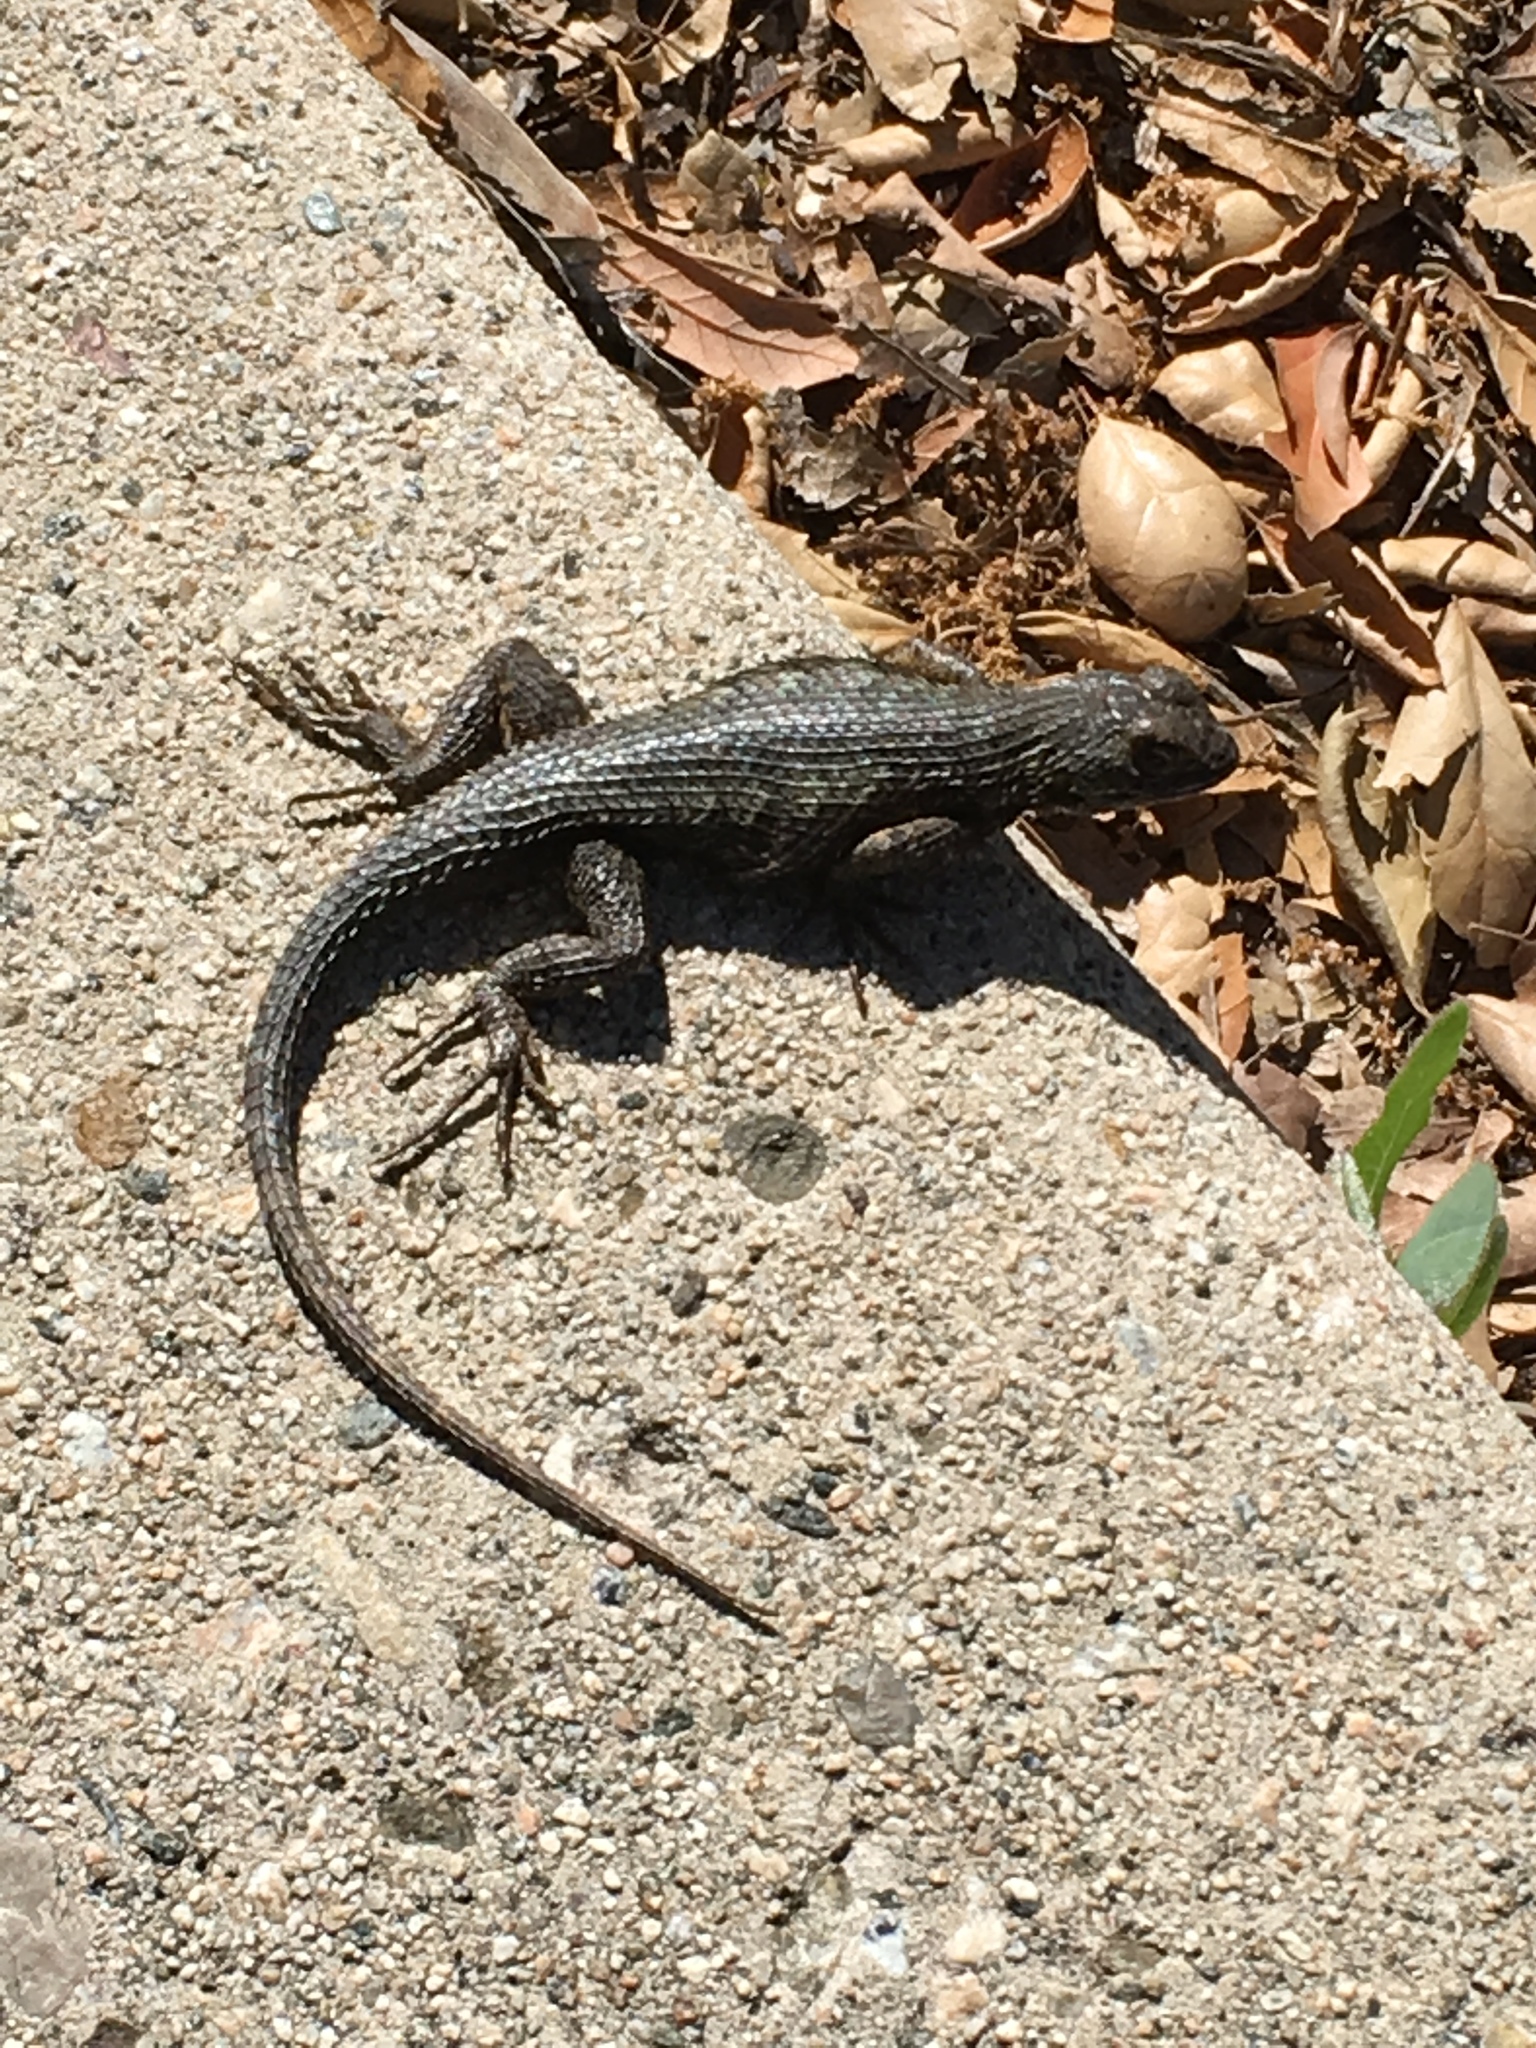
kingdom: Animalia
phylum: Chordata
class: Squamata
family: Phrynosomatidae
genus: Sceloporus
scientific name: Sceloporus occidentalis
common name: Western fence lizard
